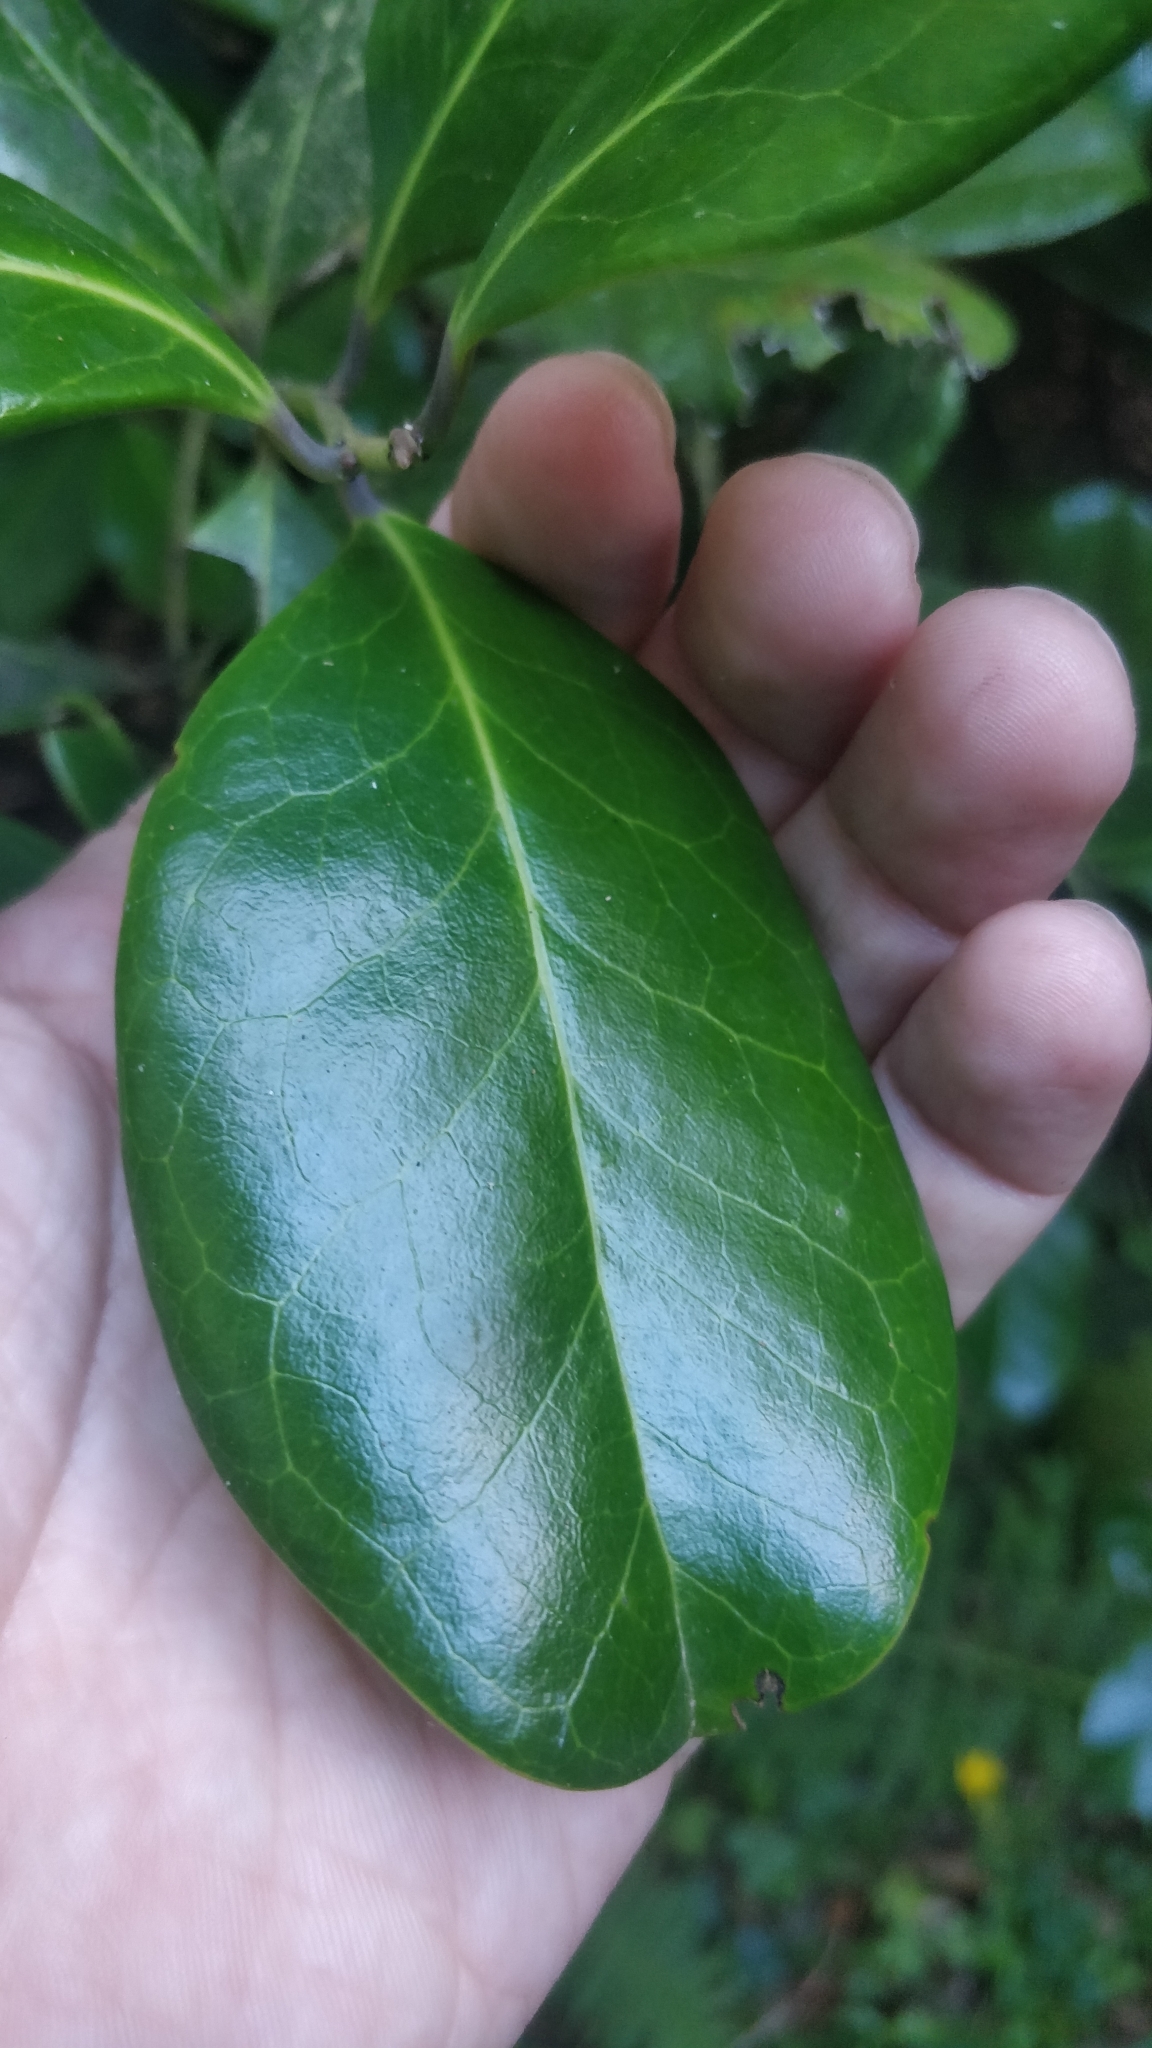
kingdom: Plantae
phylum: Tracheophyta
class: Magnoliopsida
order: Aquifoliales
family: Aquifoliaceae
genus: Ilex
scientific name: Ilex perado
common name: Madeira holly
